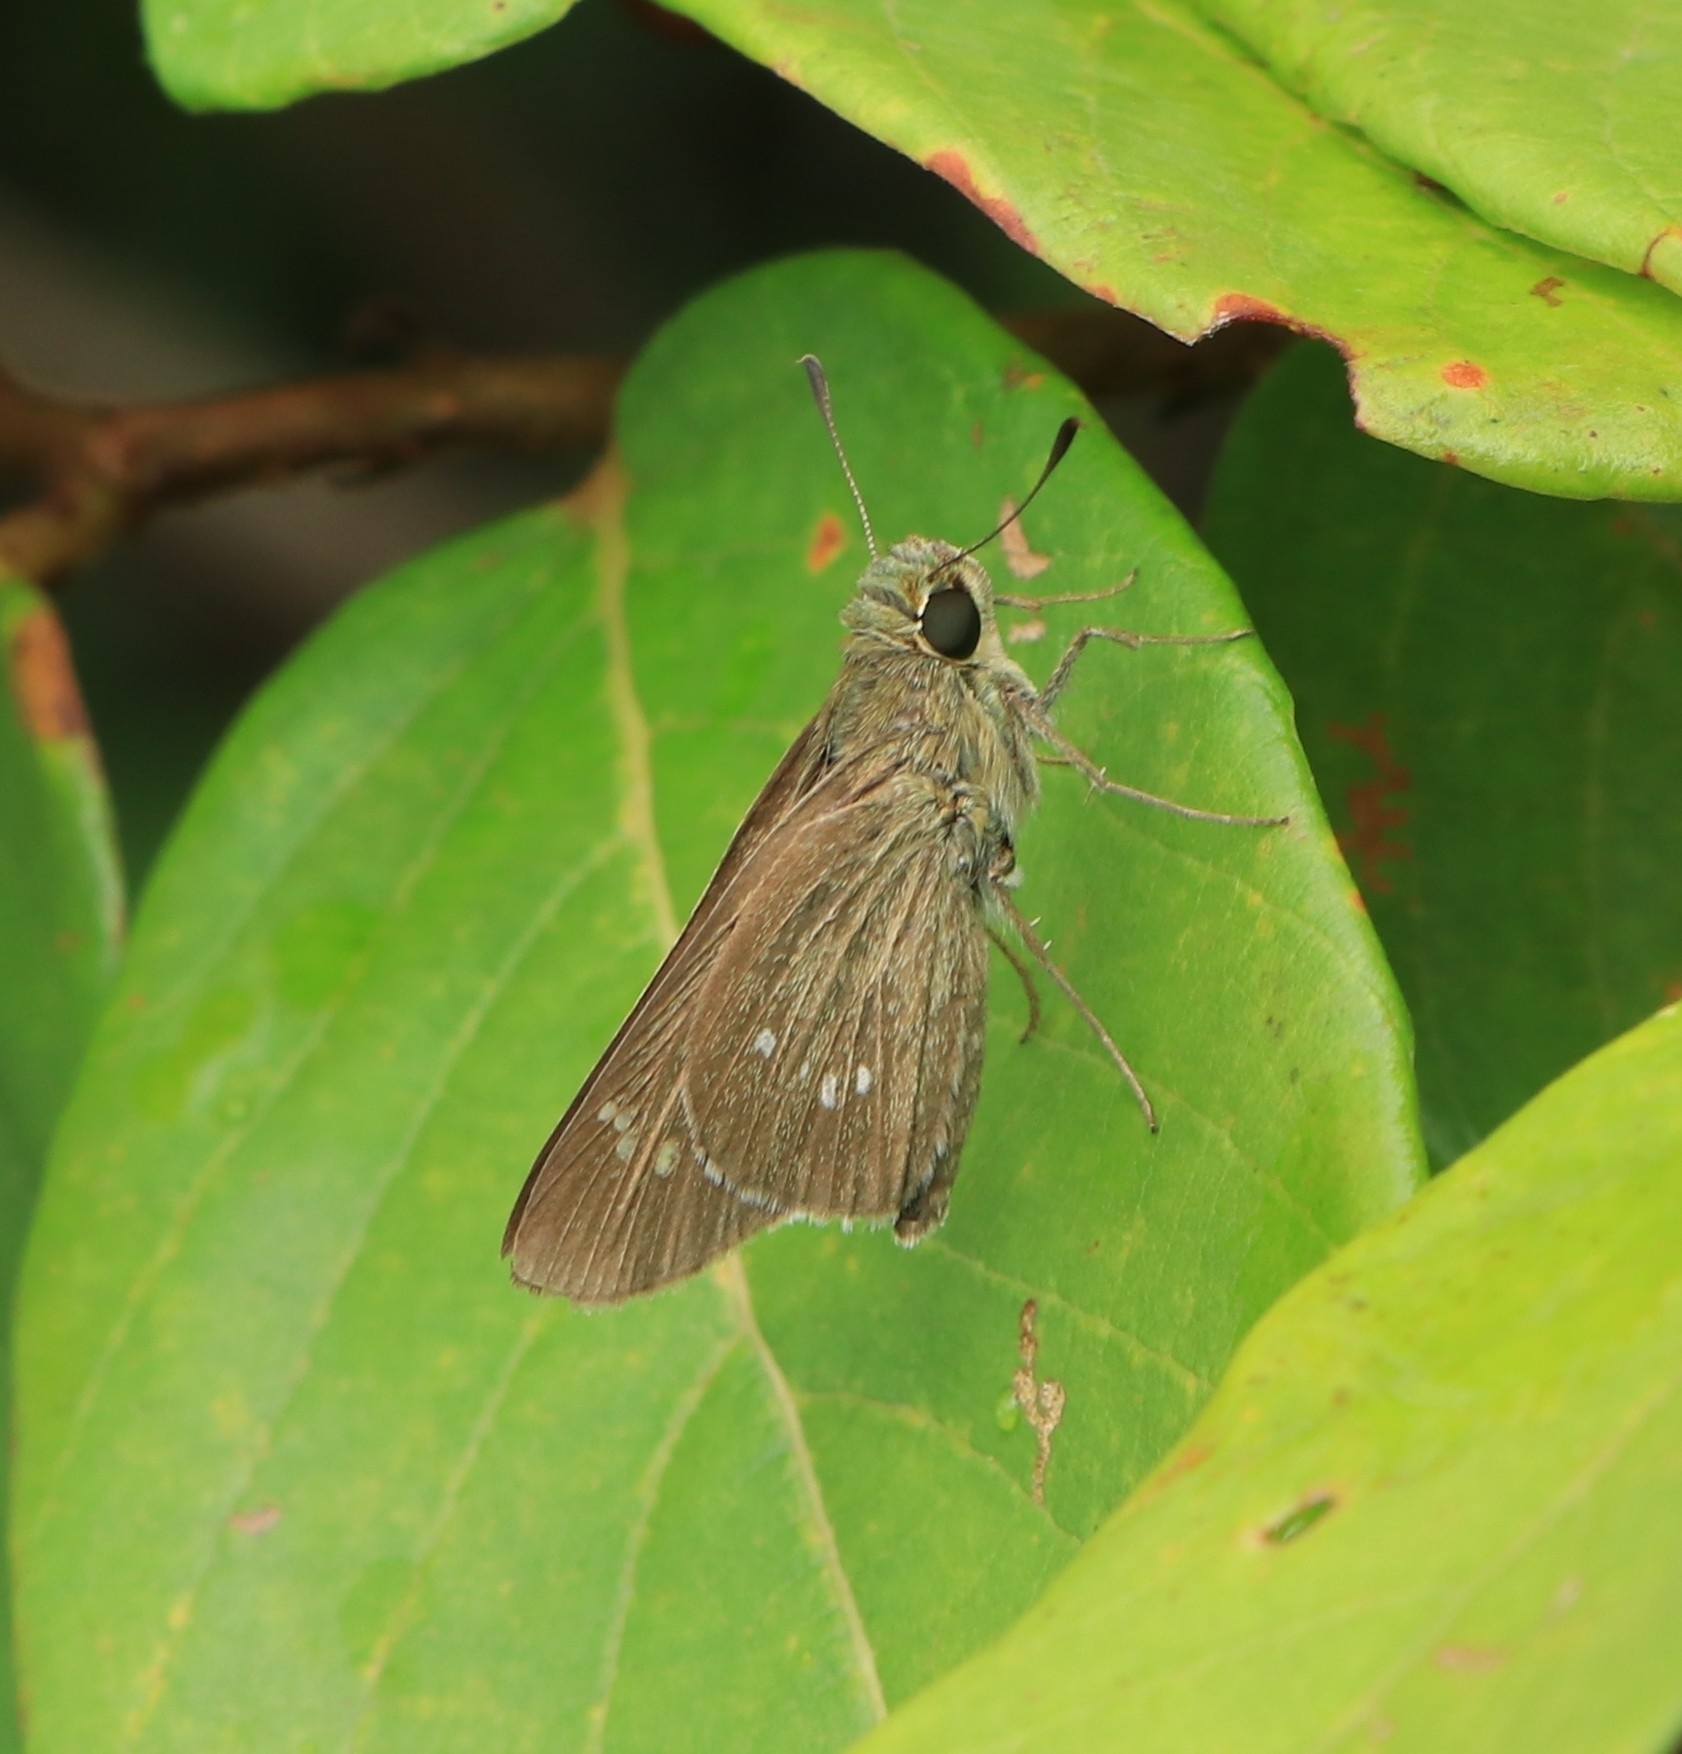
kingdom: Animalia
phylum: Arthropoda
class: Insecta
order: Lepidoptera
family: Hesperiidae
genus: Borbo
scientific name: Borbo cinnara
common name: Formosan swift
